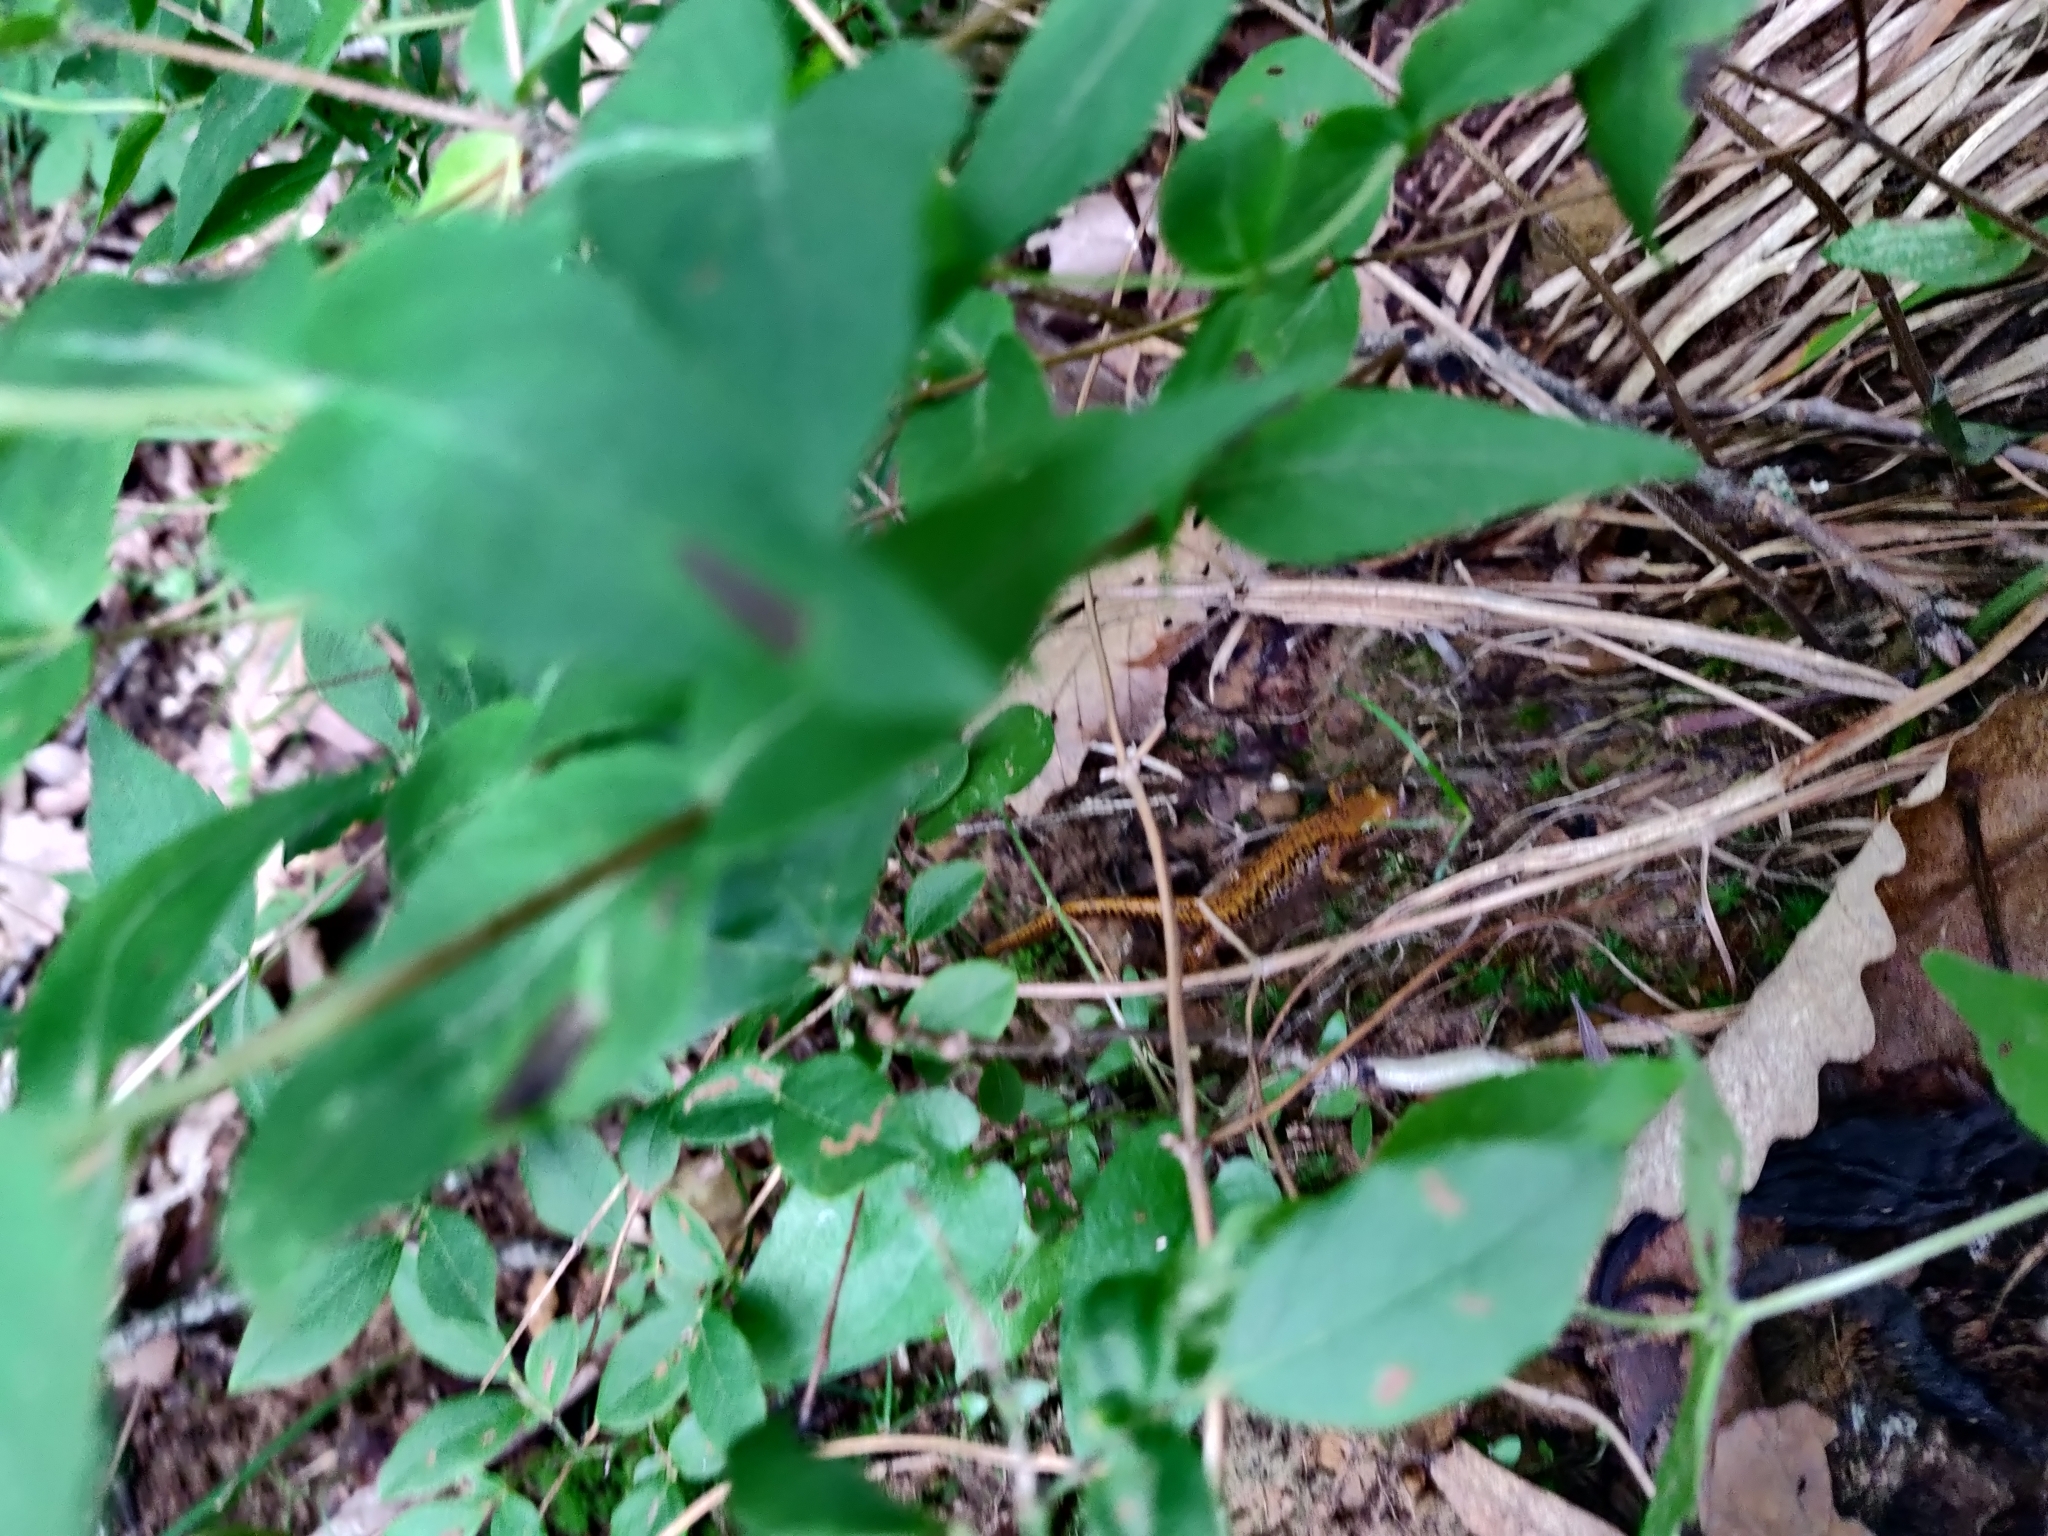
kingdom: Animalia
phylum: Chordata
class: Amphibia
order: Caudata
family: Plethodontidae
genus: Eurycea
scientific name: Eurycea longicauda
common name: Long-tailed salamander
